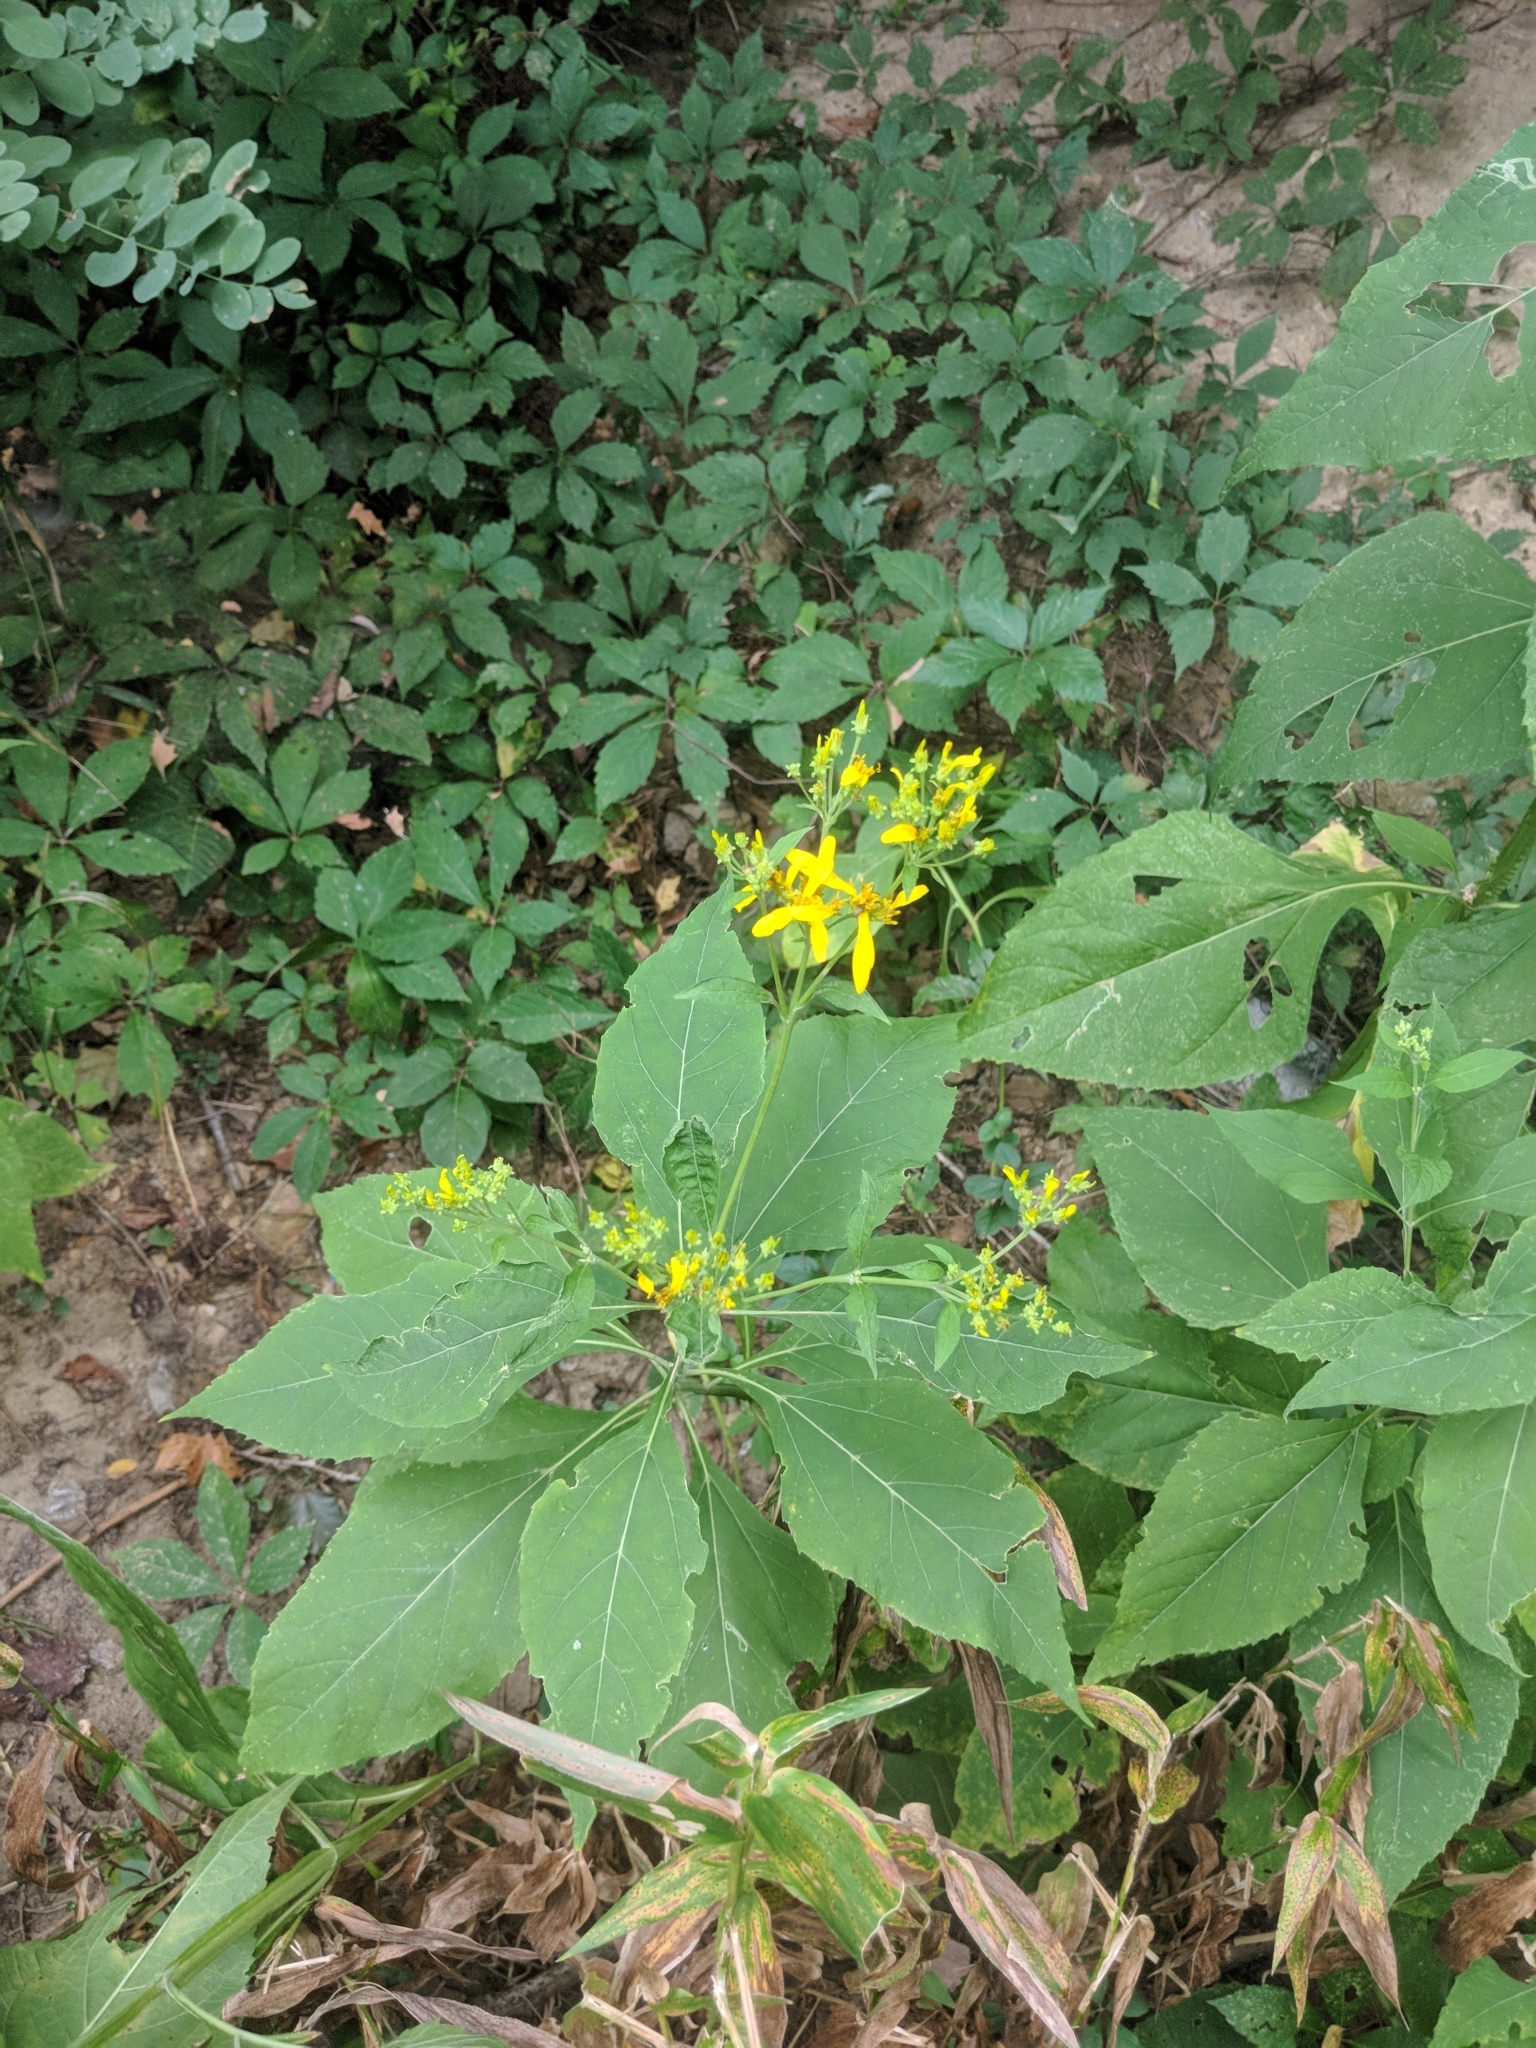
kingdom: Plantae
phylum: Tracheophyta
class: Magnoliopsida
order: Asterales
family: Asteraceae
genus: Verbesina
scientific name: Verbesina occidentalis
